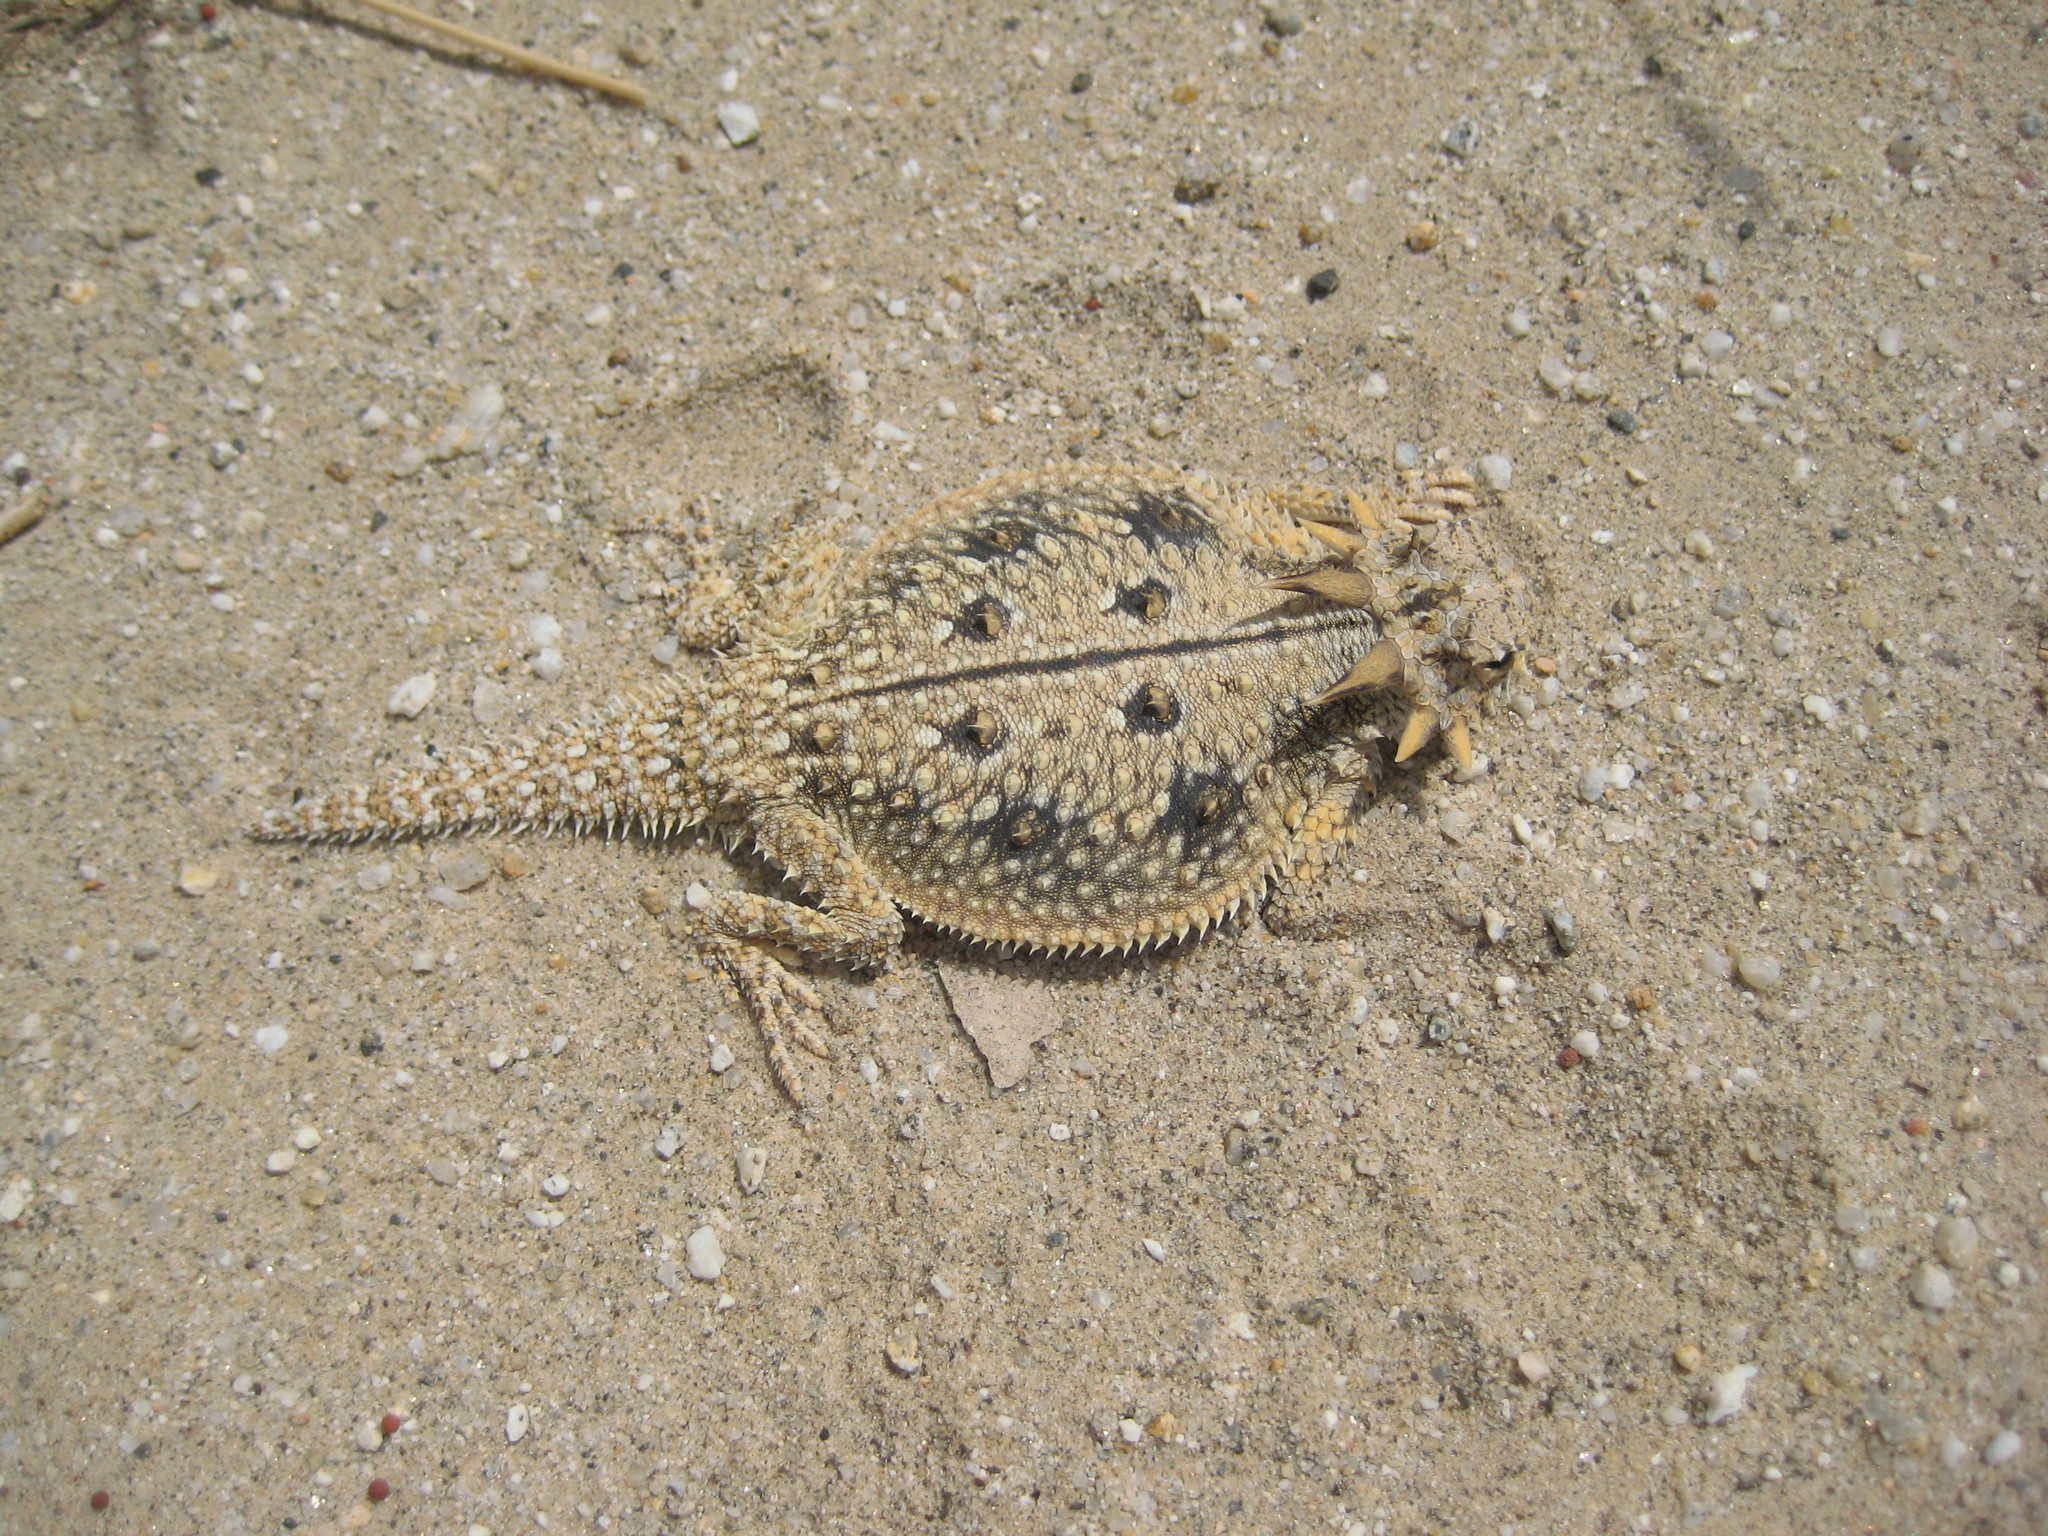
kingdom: Animalia
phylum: Chordata
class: Squamata
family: Phrynosomatidae
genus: Phrynosoma
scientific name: Phrynosoma mcallii
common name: Flat-tailed horned lizard
